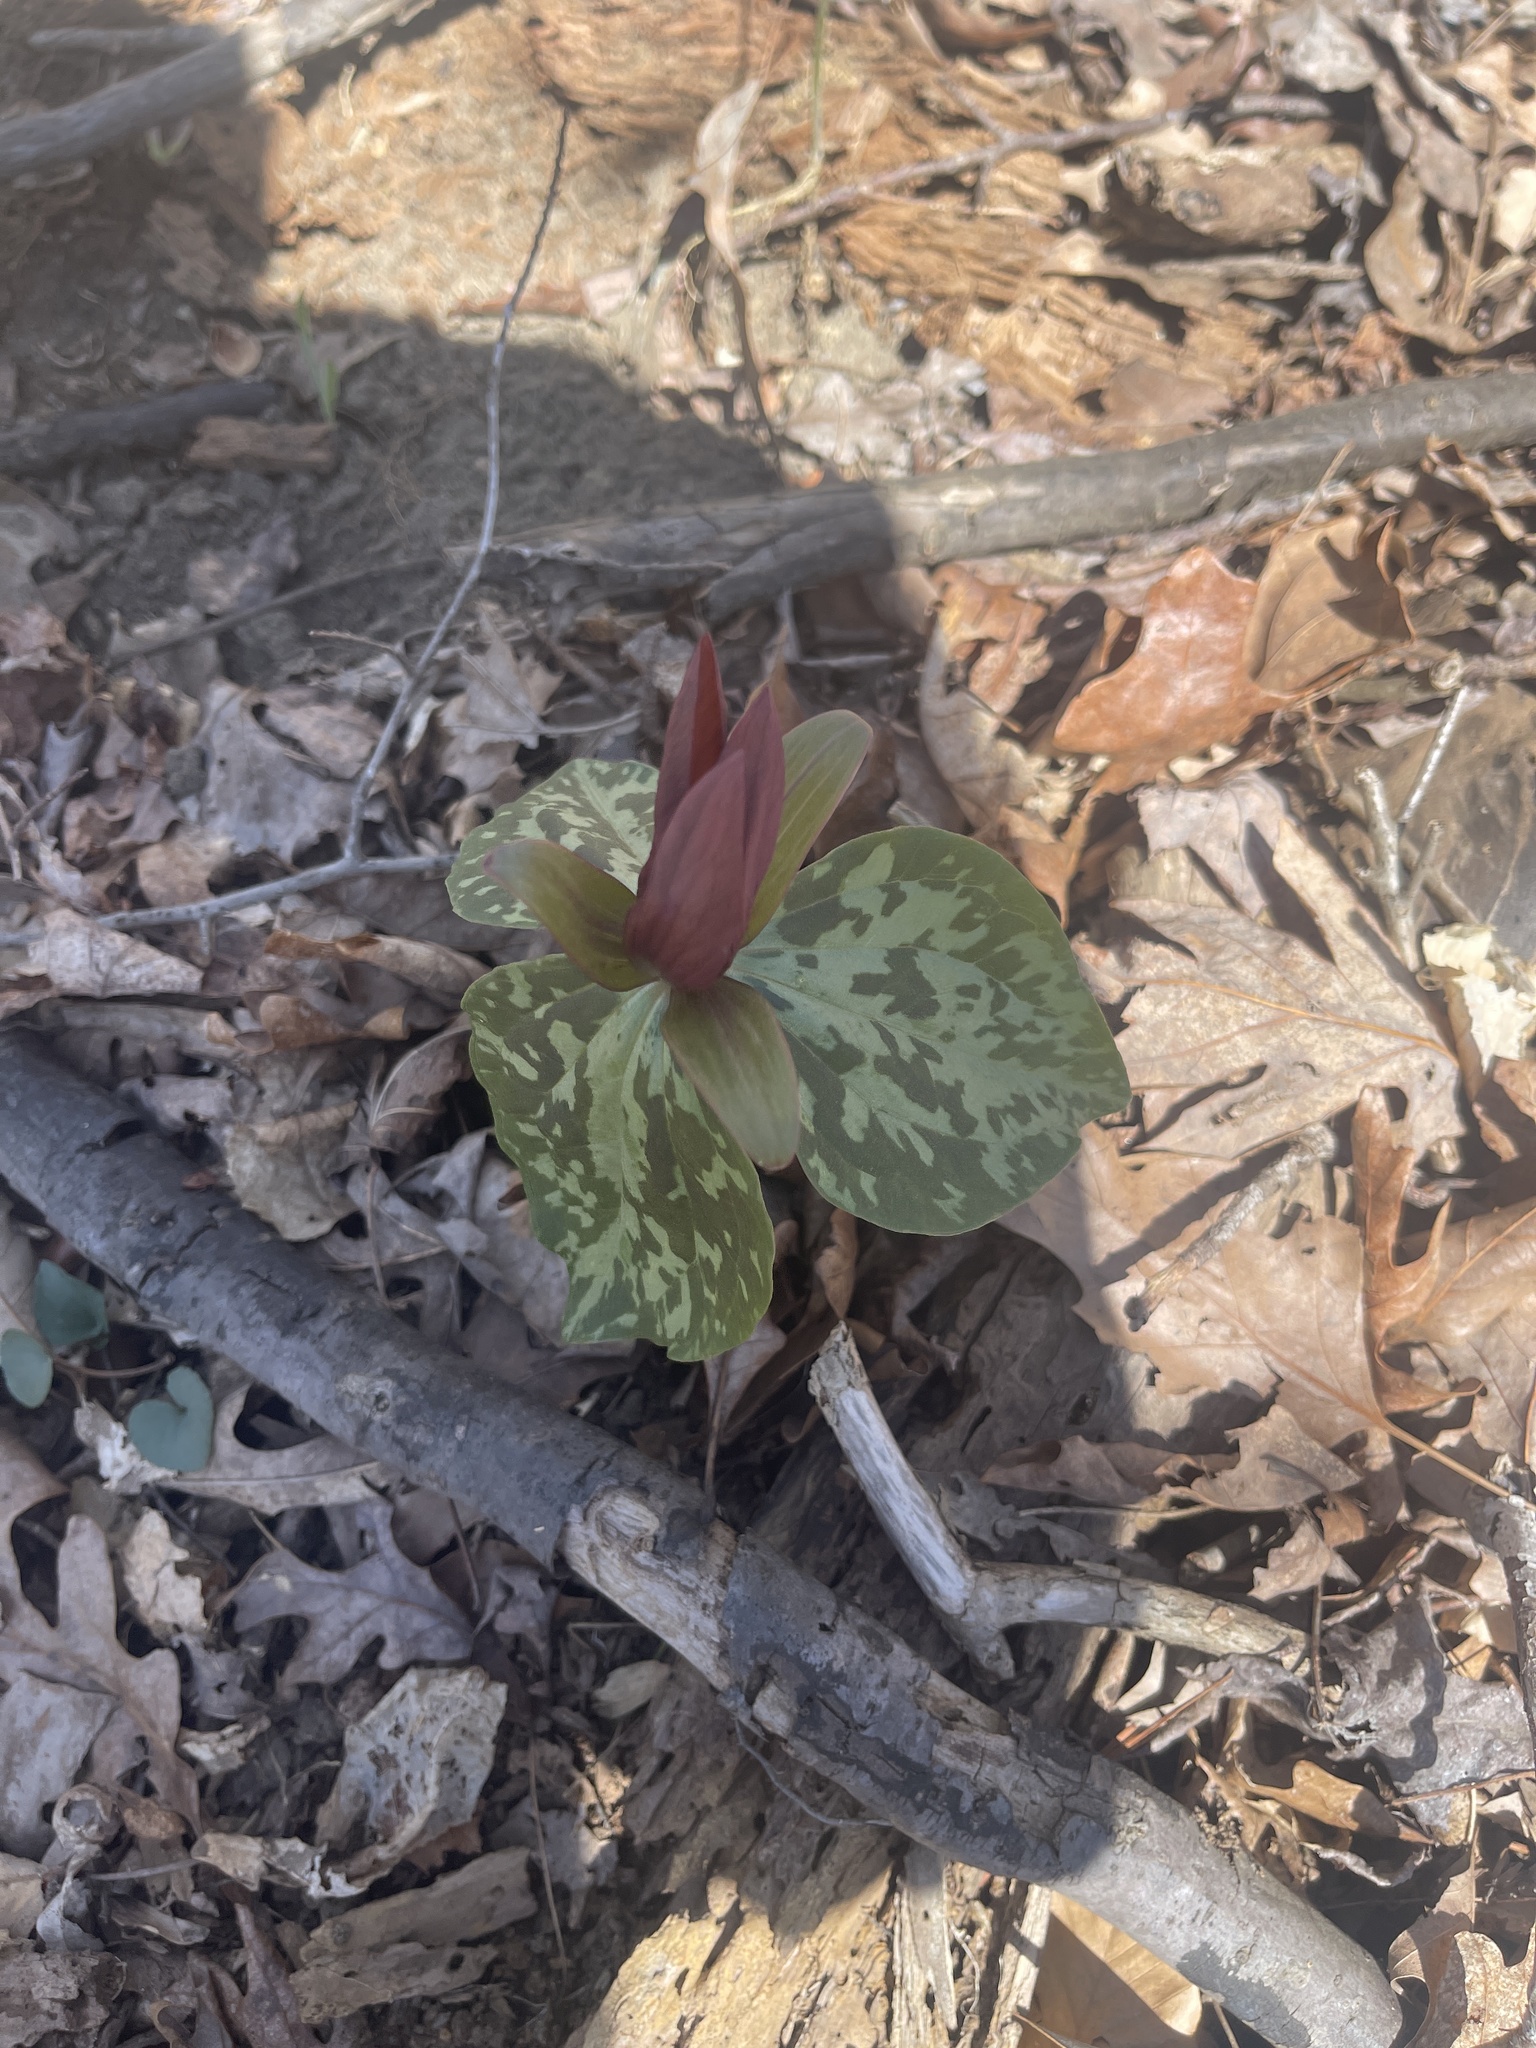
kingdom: Plantae
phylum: Tracheophyta
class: Liliopsida
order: Liliales
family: Melanthiaceae
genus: Trillium
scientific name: Trillium cuneatum
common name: Cuneate trillium
